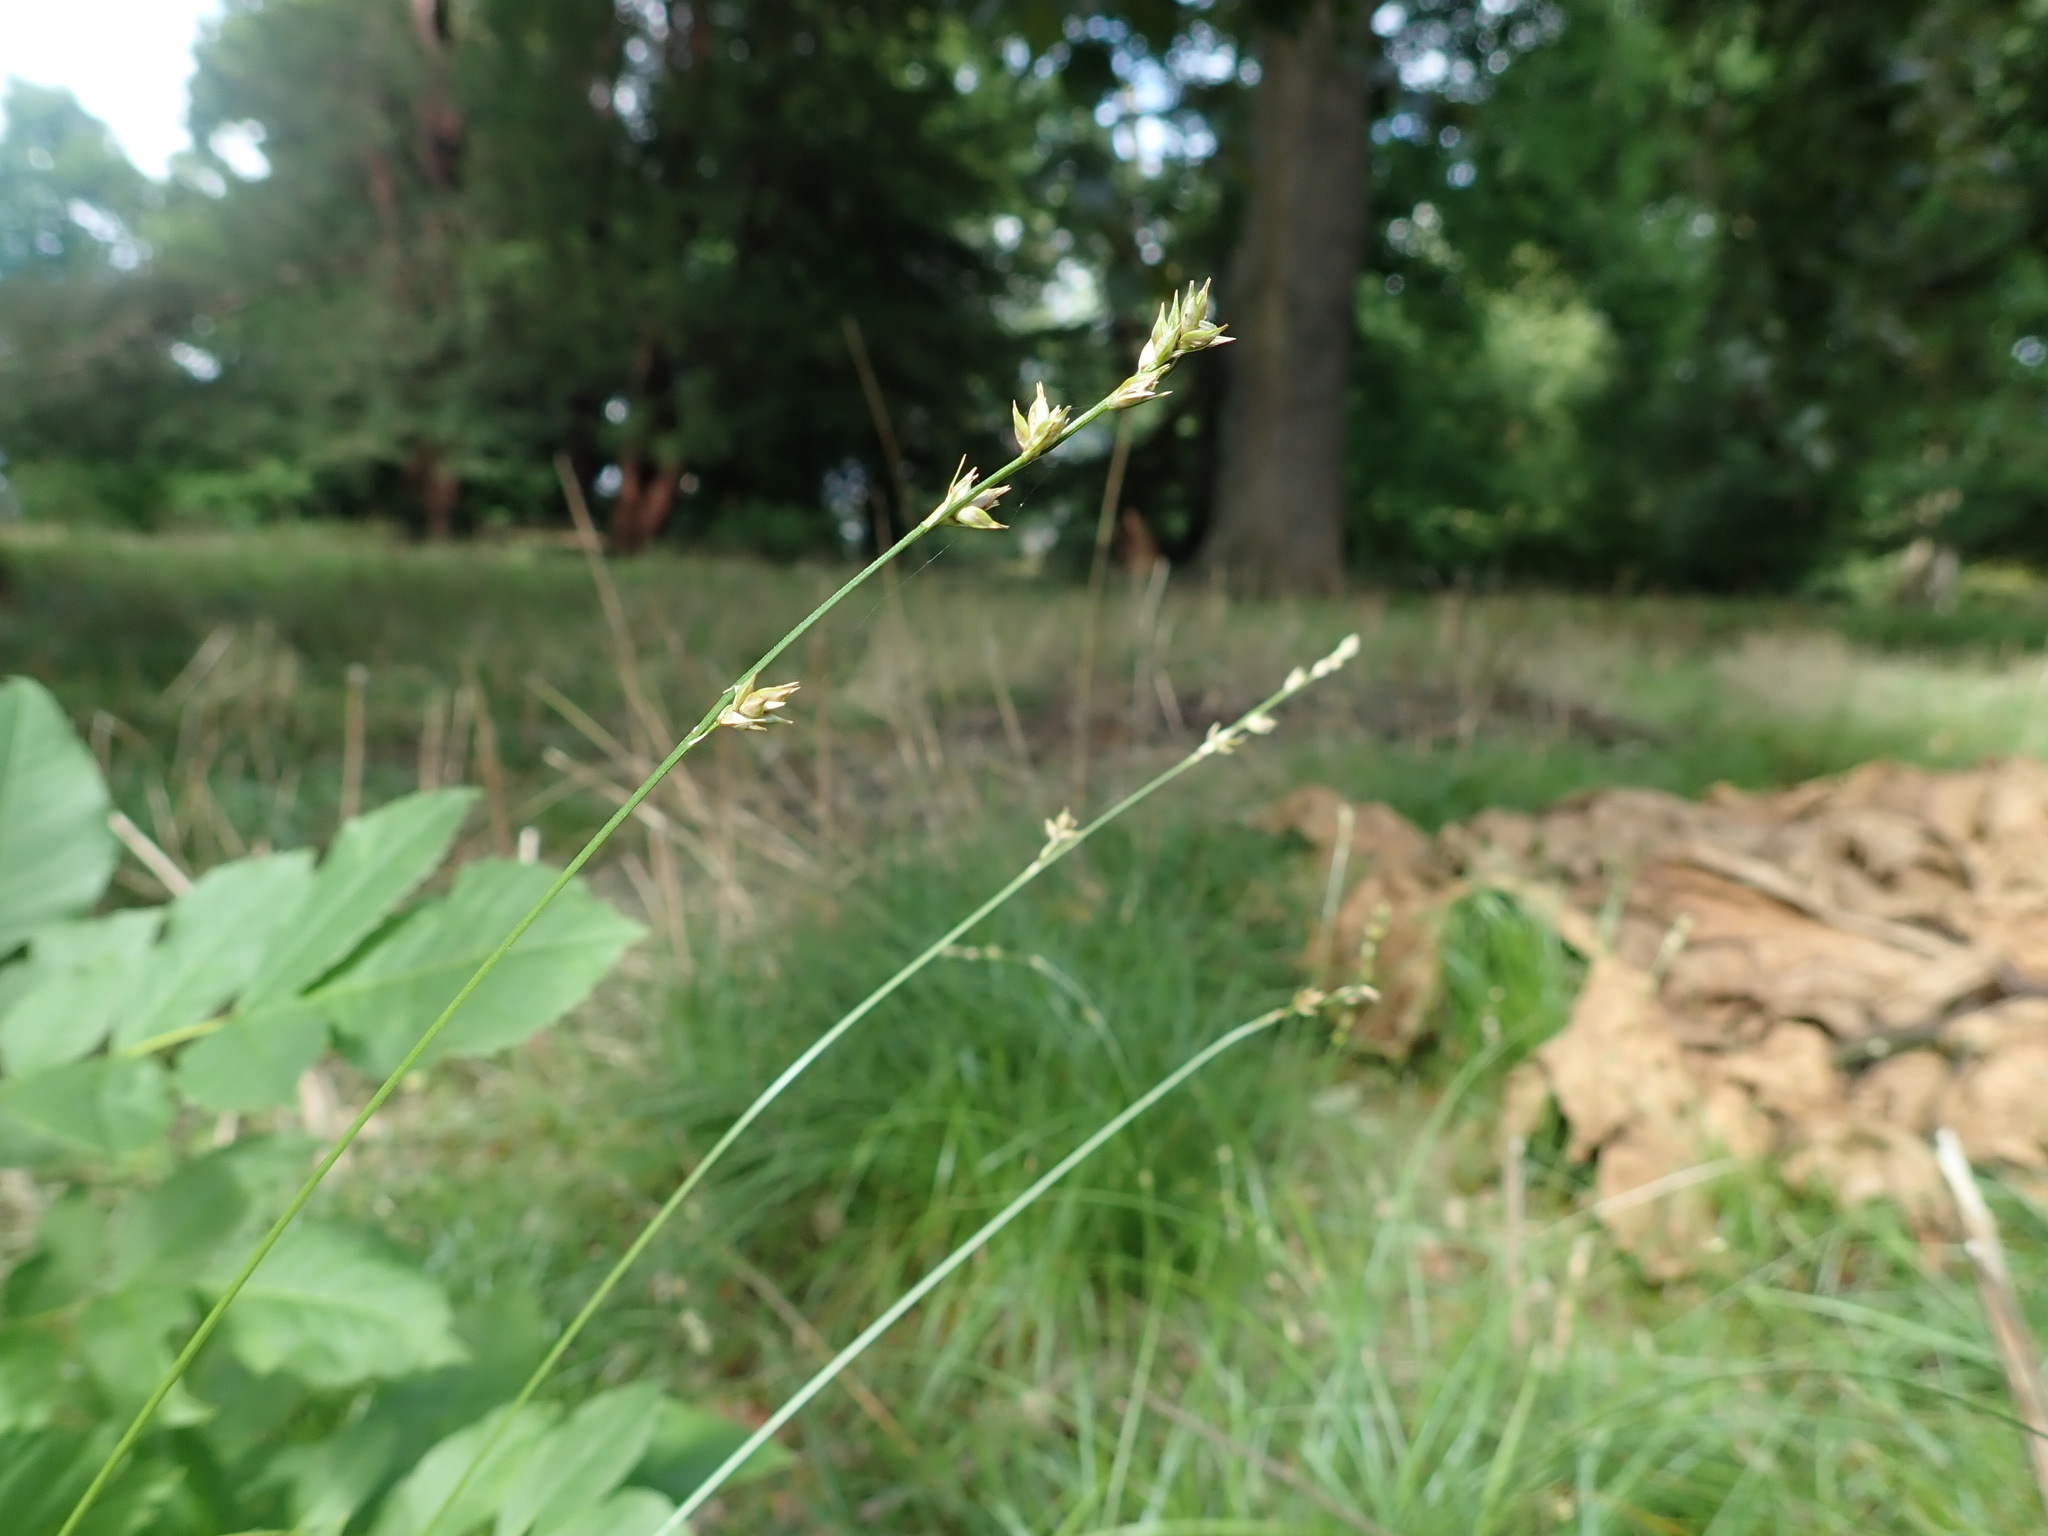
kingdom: Plantae
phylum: Tracheophyta
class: Liliopsida
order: Poales
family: Cyperaceae
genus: Carex
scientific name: Carex divulsa
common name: Grassland sedge
